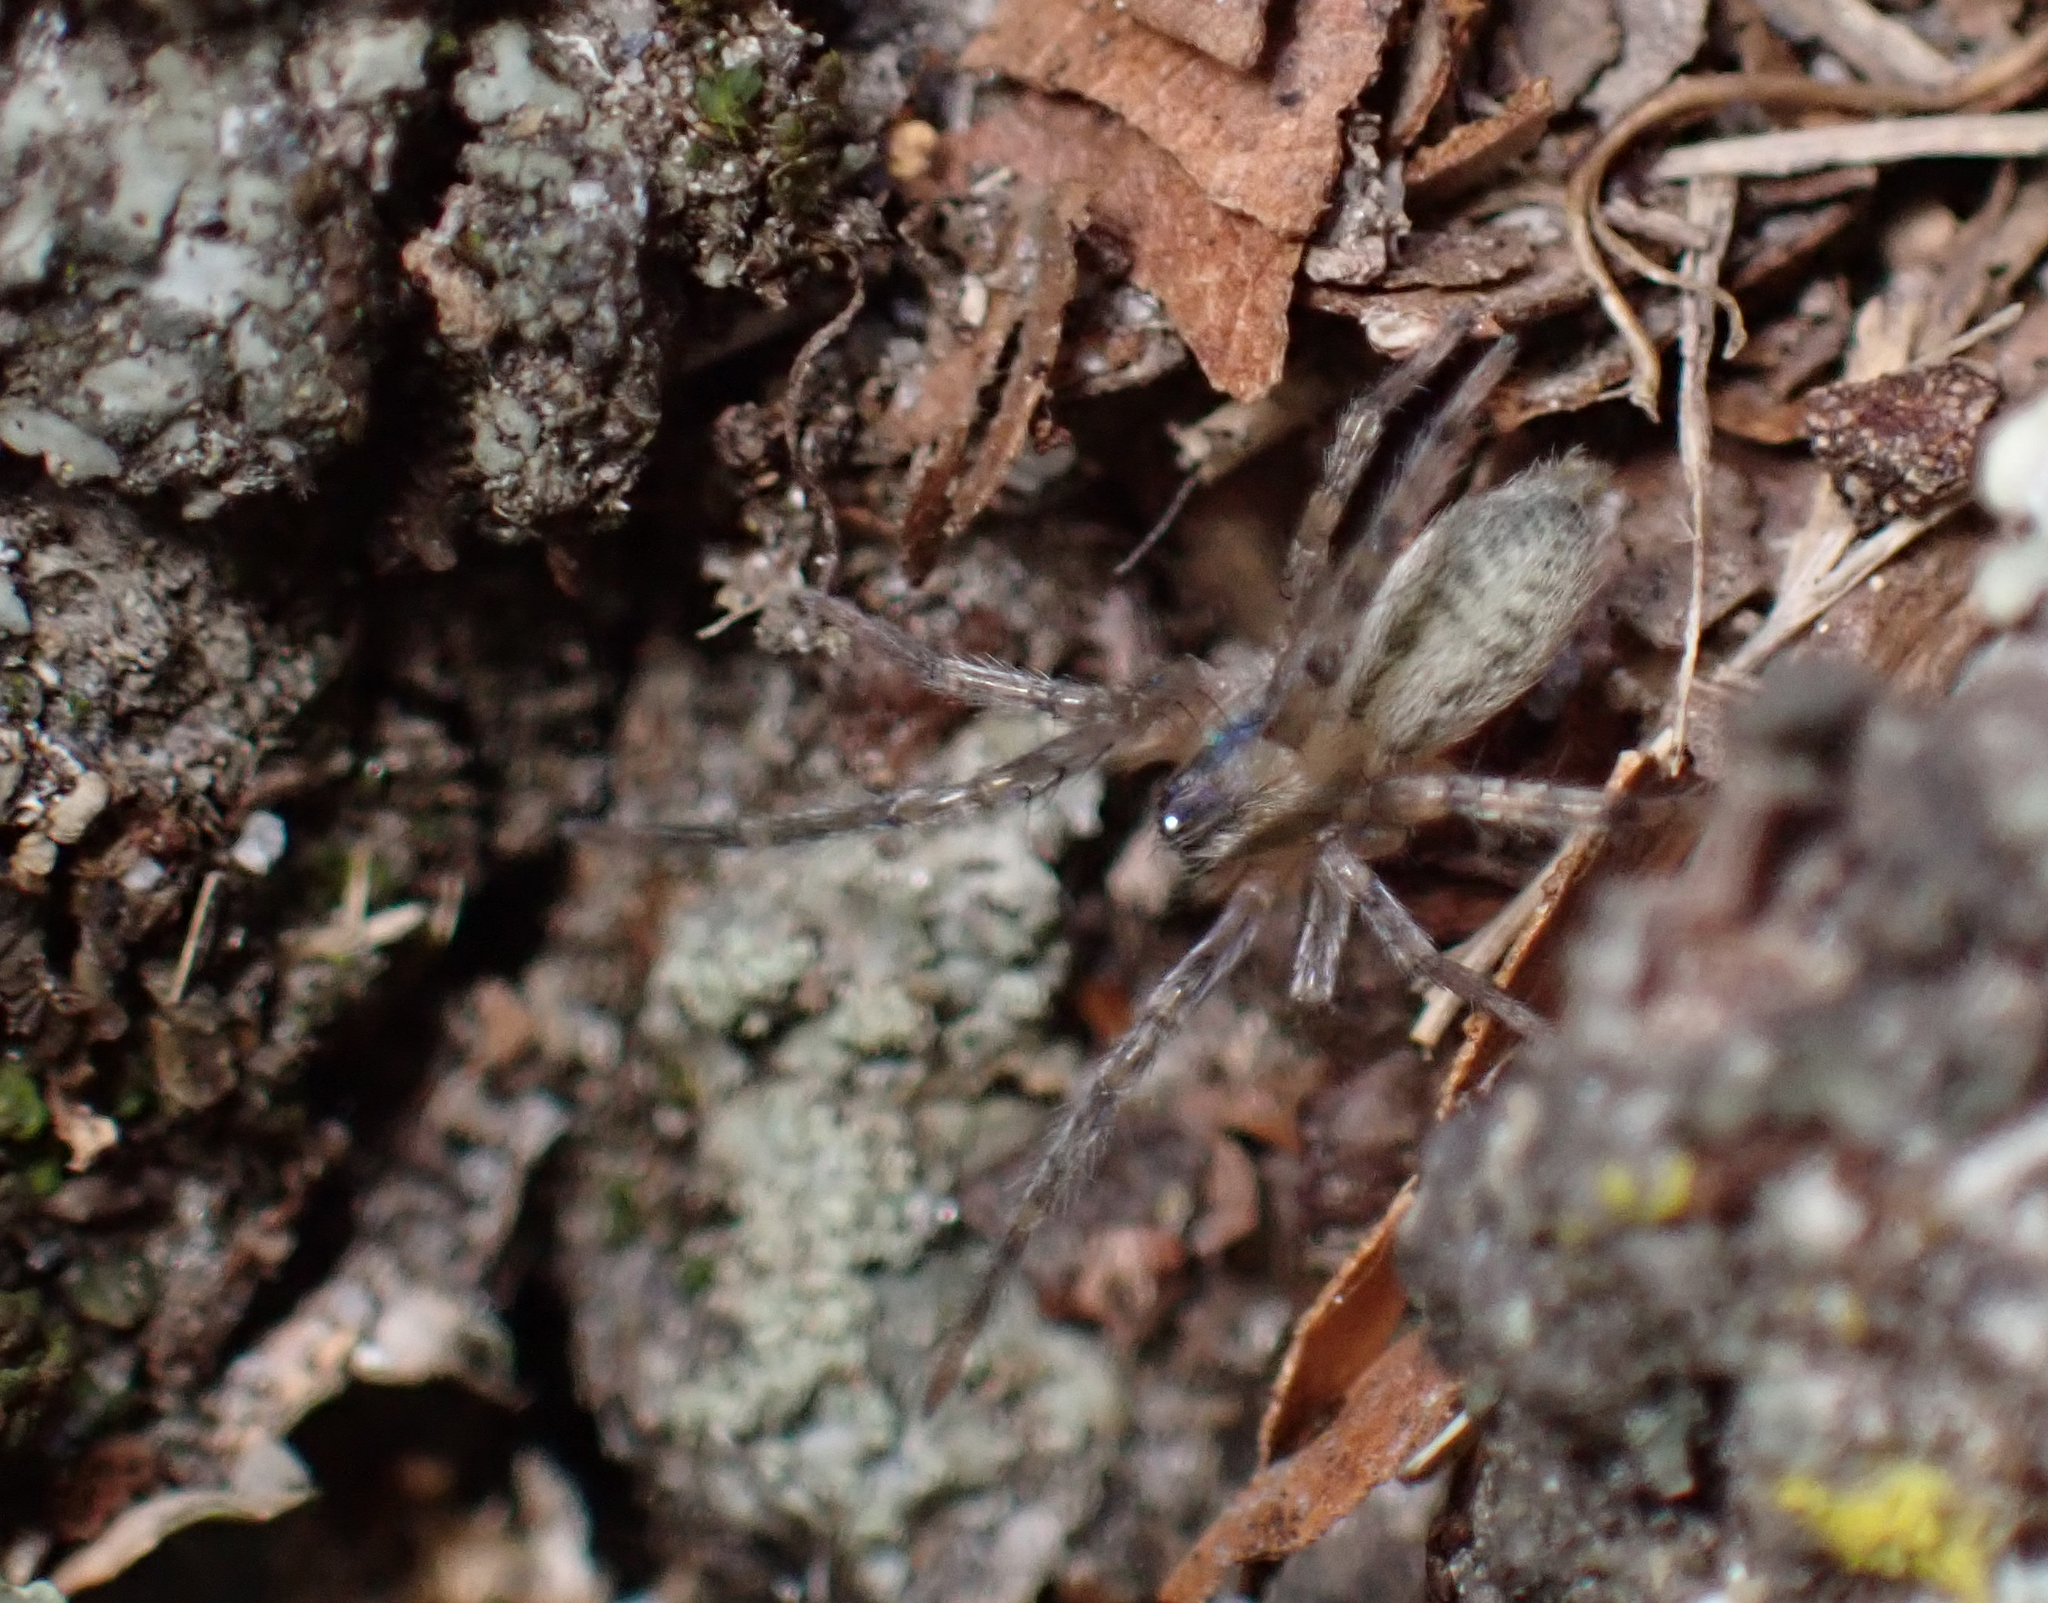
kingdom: Animalia
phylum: Arthropoda
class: Arachnida
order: Araneae
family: Anyphaenidae
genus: Hibana
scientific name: Hibana gracilis
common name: Garden ghost spider
